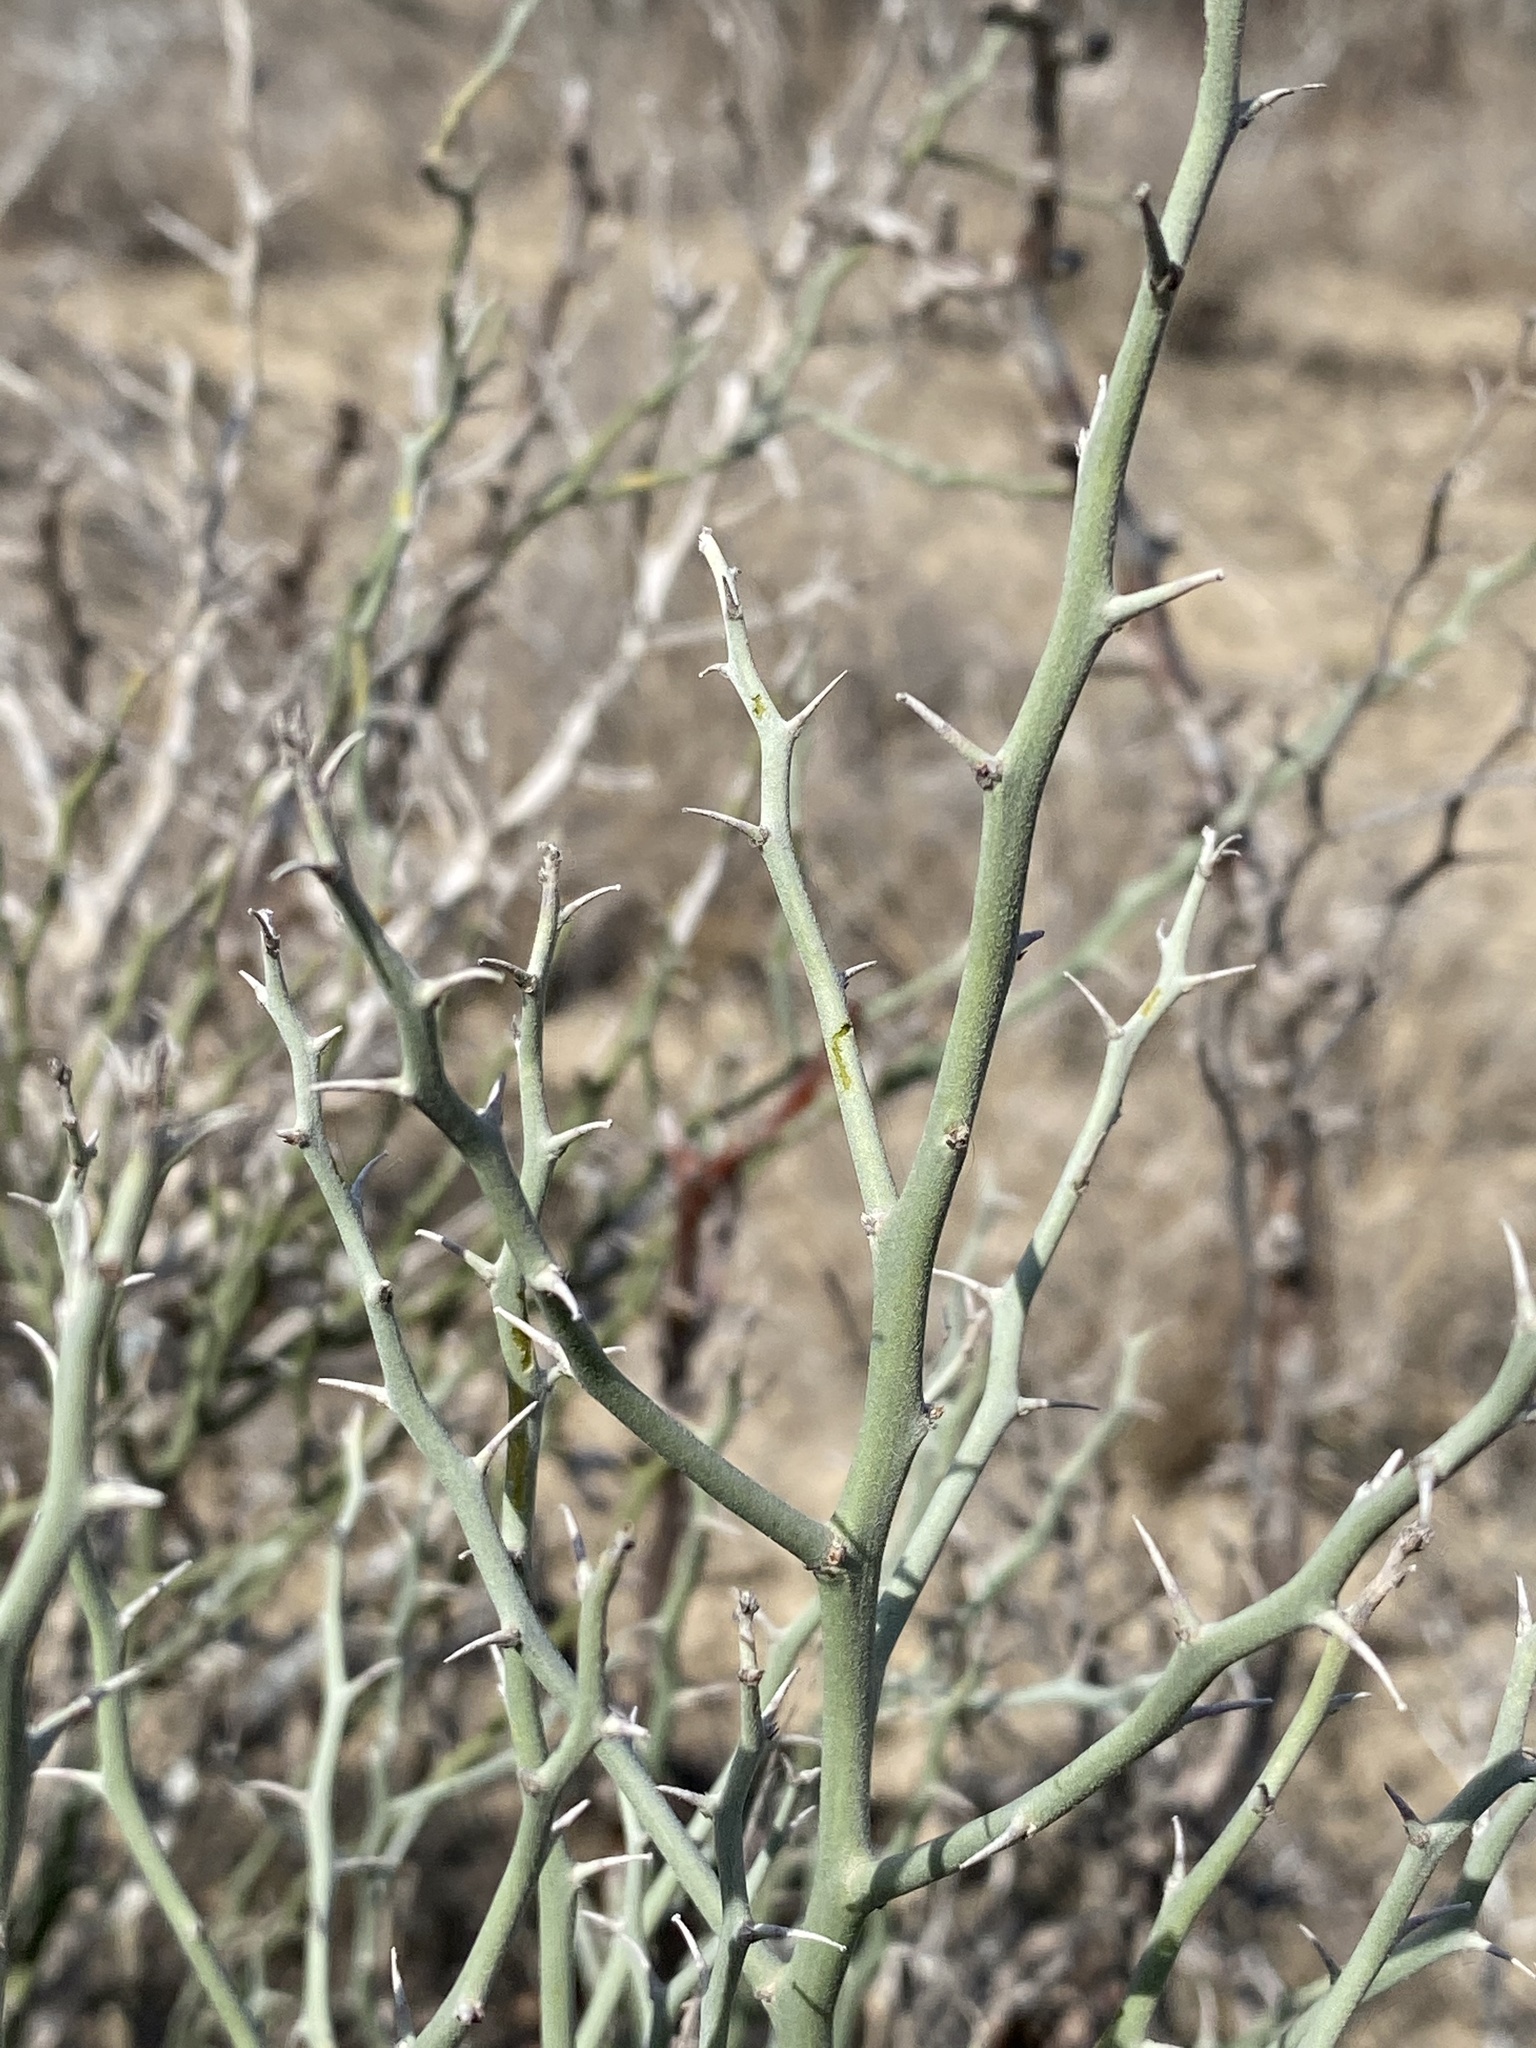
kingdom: Plantae
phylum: Tracheophyta
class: Magnoliopsida
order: Fabales
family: Fabaceae
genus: Parkinsonia
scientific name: Parkinsonia texana
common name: Texas paloverde
